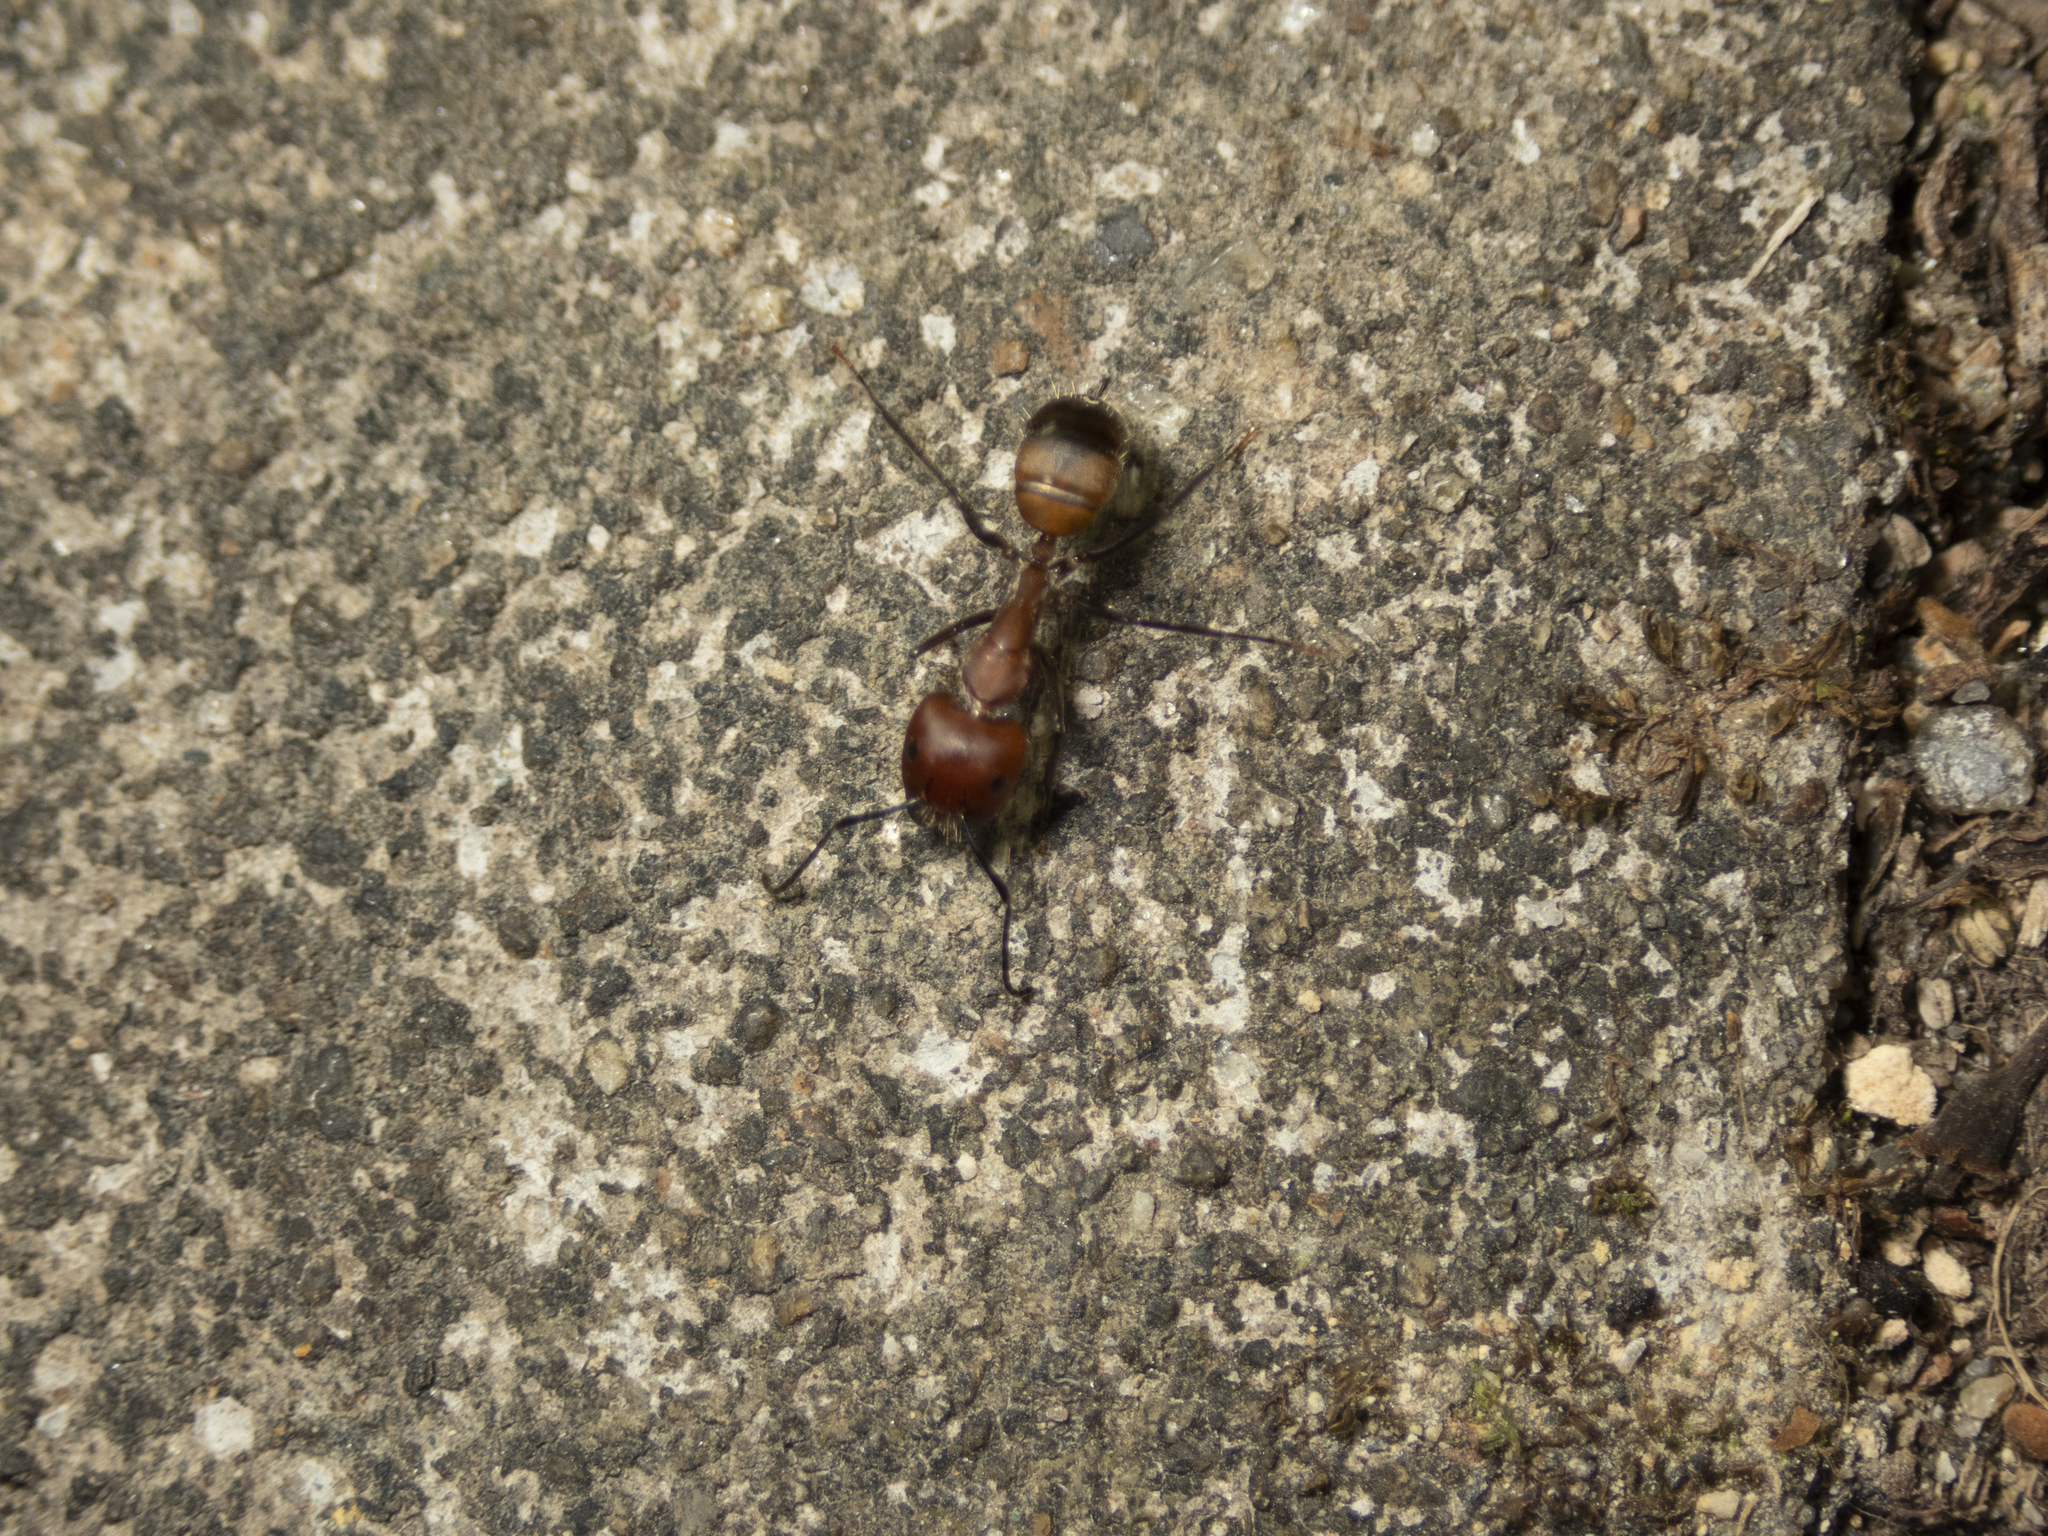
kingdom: Animalia
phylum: Arthropoda
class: Insecta
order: Hymenoptera
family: Formicidae
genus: Camponotus
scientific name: Camponotus nicobarensis
